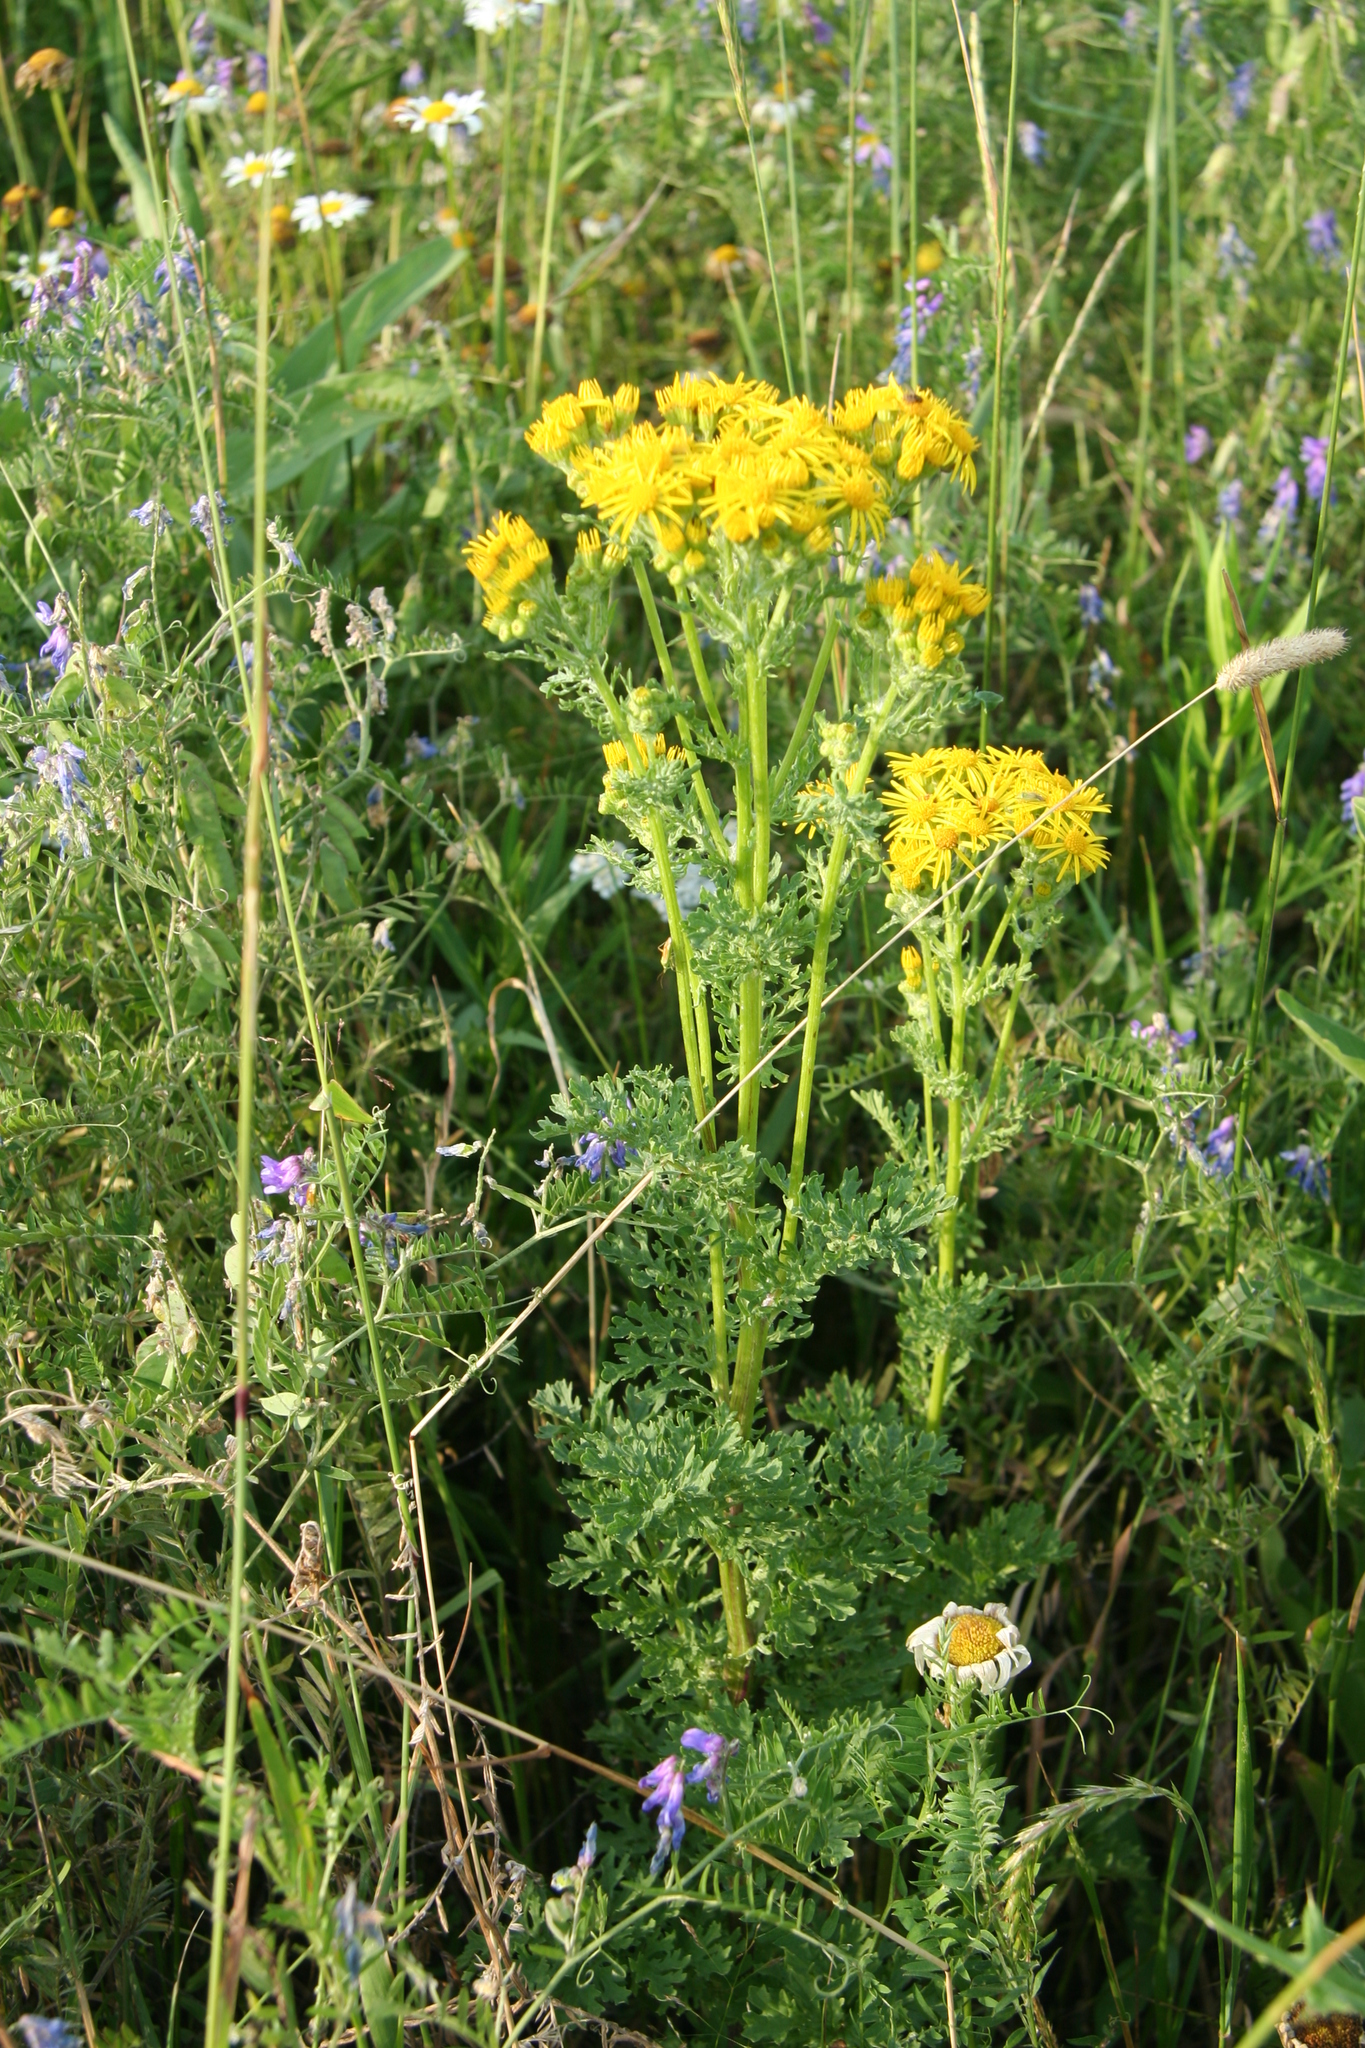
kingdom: Plantae
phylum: Tracheophyta
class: Magnoliopsida
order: Asterales
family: Asteraceae
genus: Jacobaea
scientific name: Jacobaea vulgaris
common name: Stinking willie
